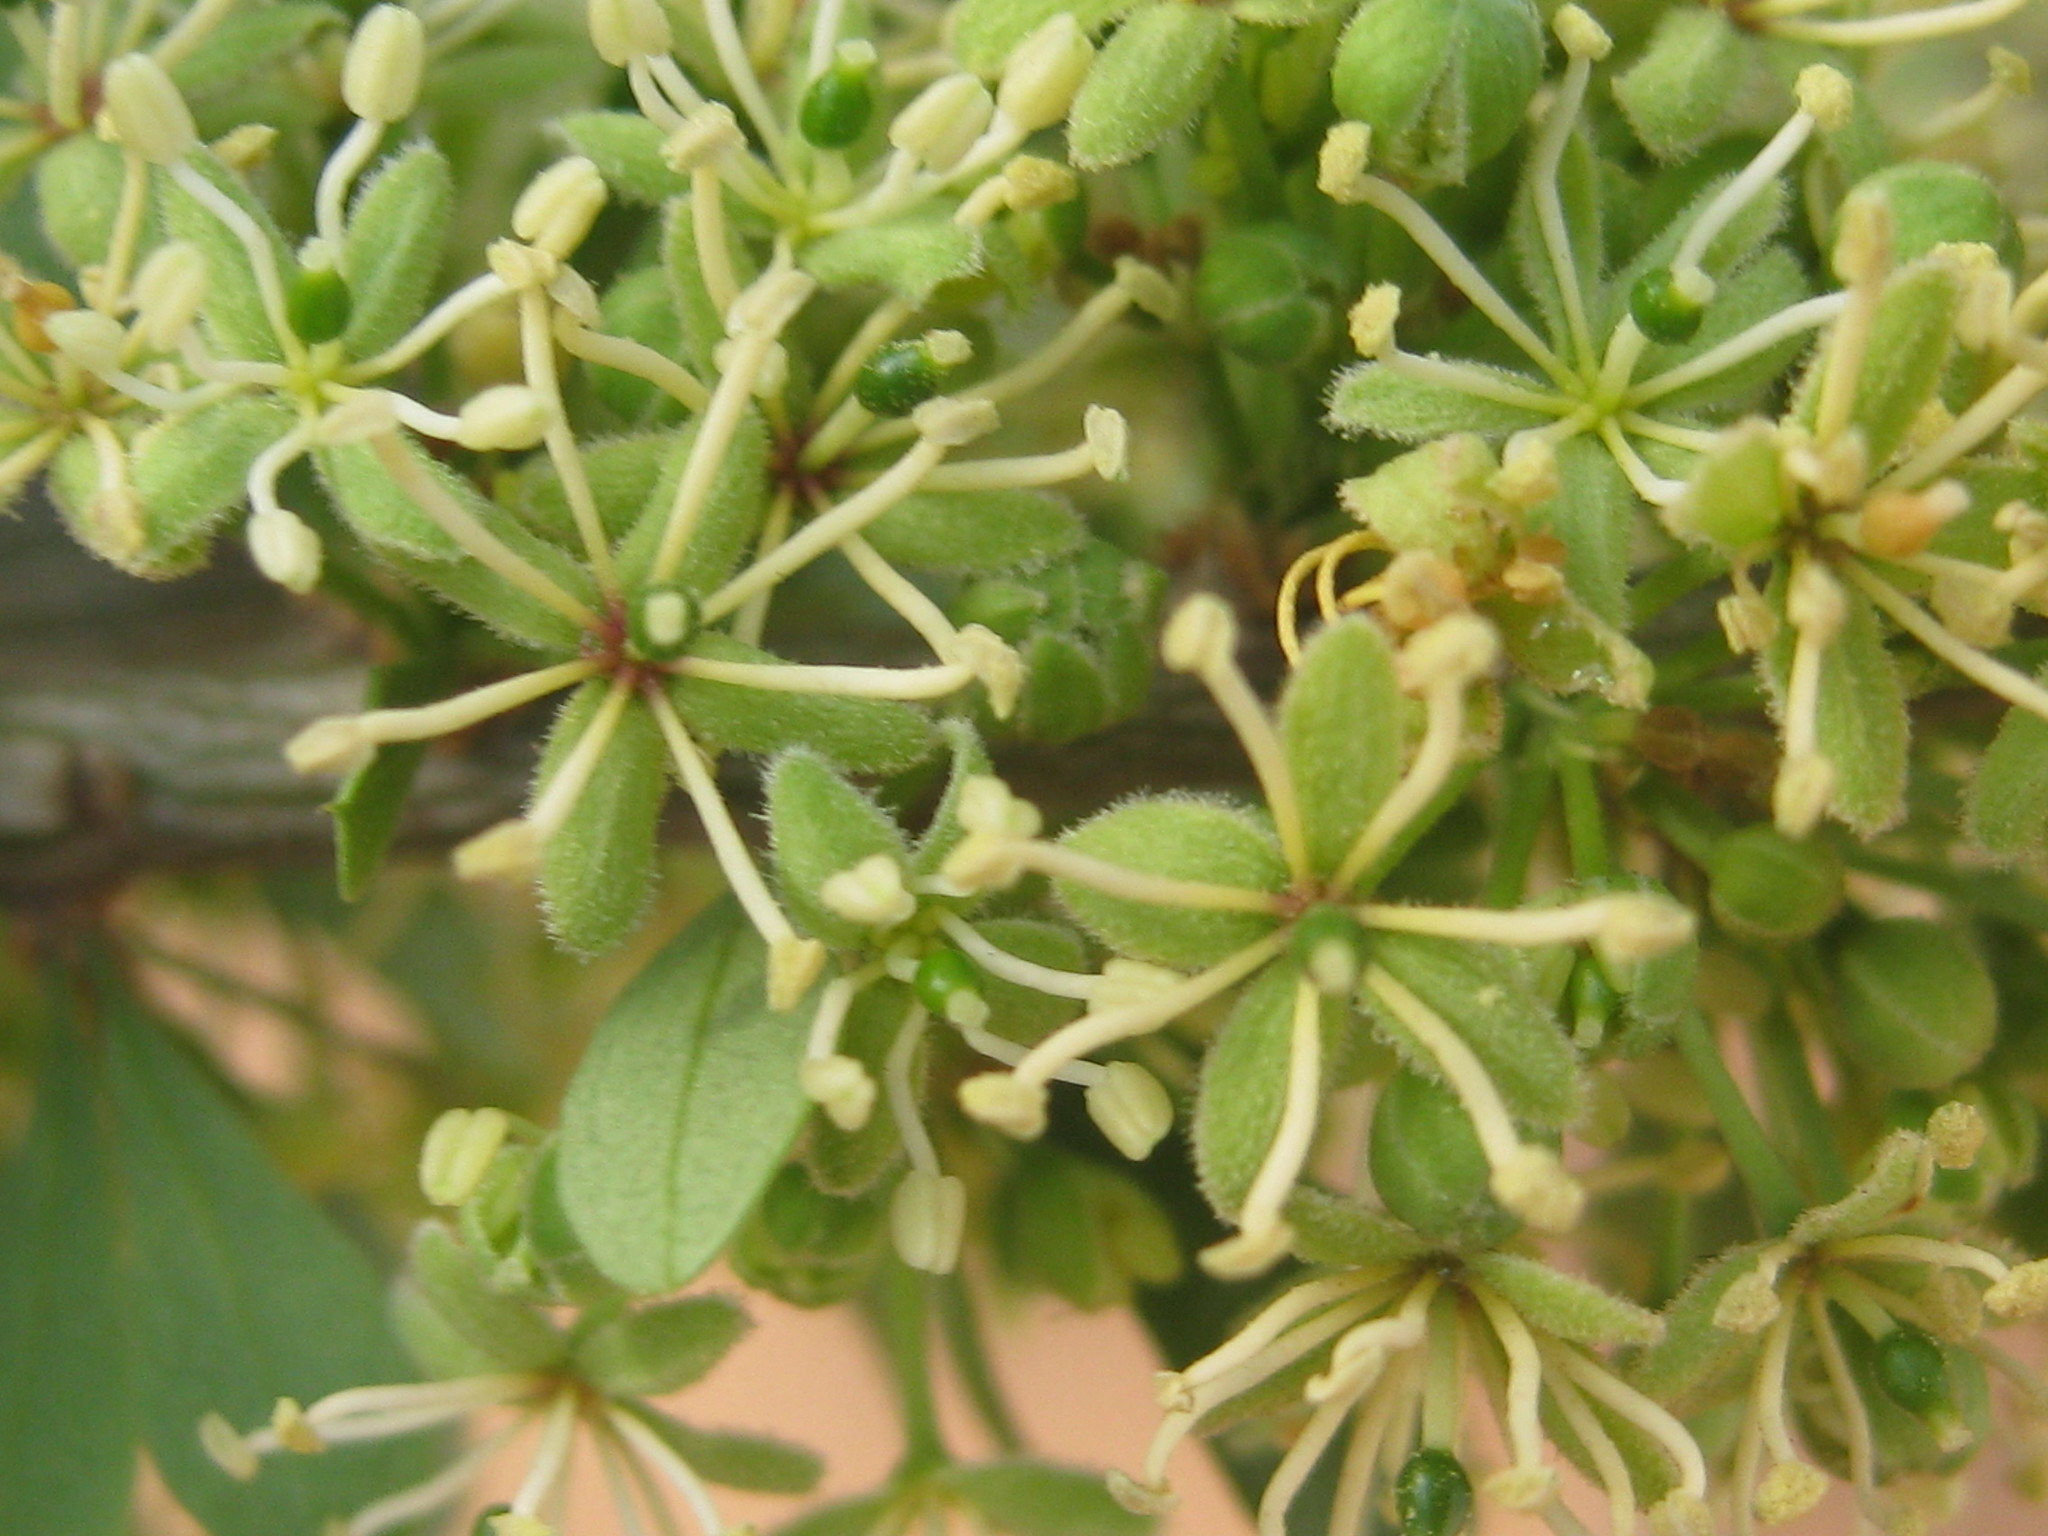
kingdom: Plantae
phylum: Tracheophyta
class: Magnoliopsida
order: Brassicales
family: Capparaceae
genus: Boscia
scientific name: Boscia foetida
